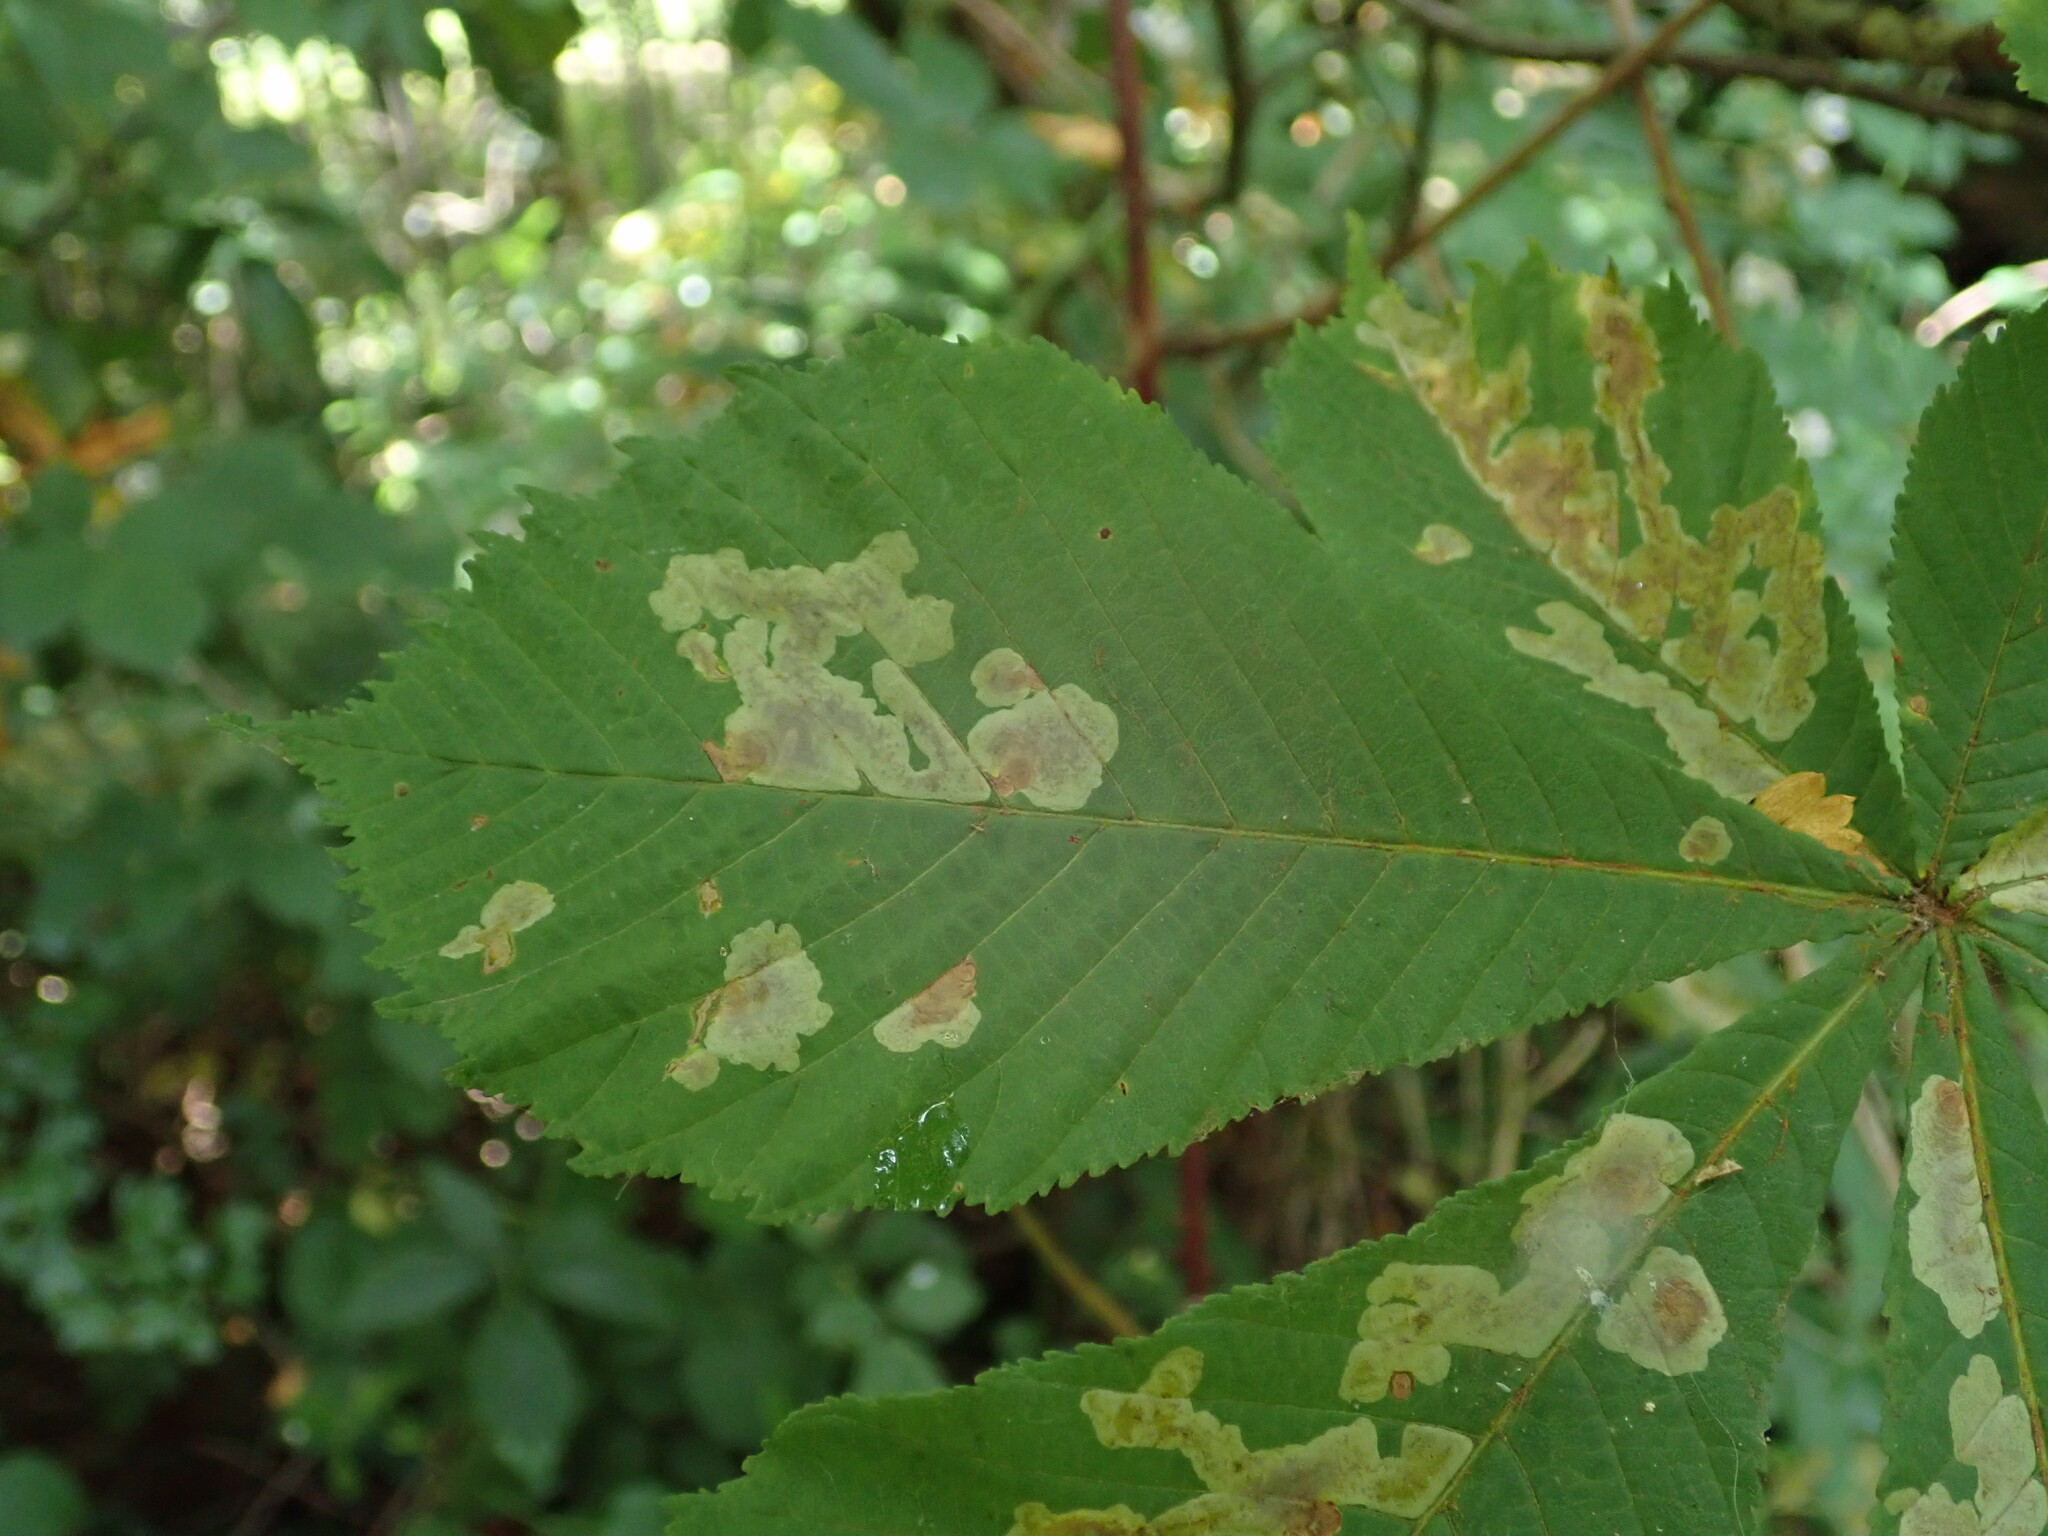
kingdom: Animalia
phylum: Arthropoda
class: Insecta
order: Lepidoptera
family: Gracillariidae
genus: Cameraria
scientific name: Cameraria ohridella
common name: Horse-chestnut leaf-miner
